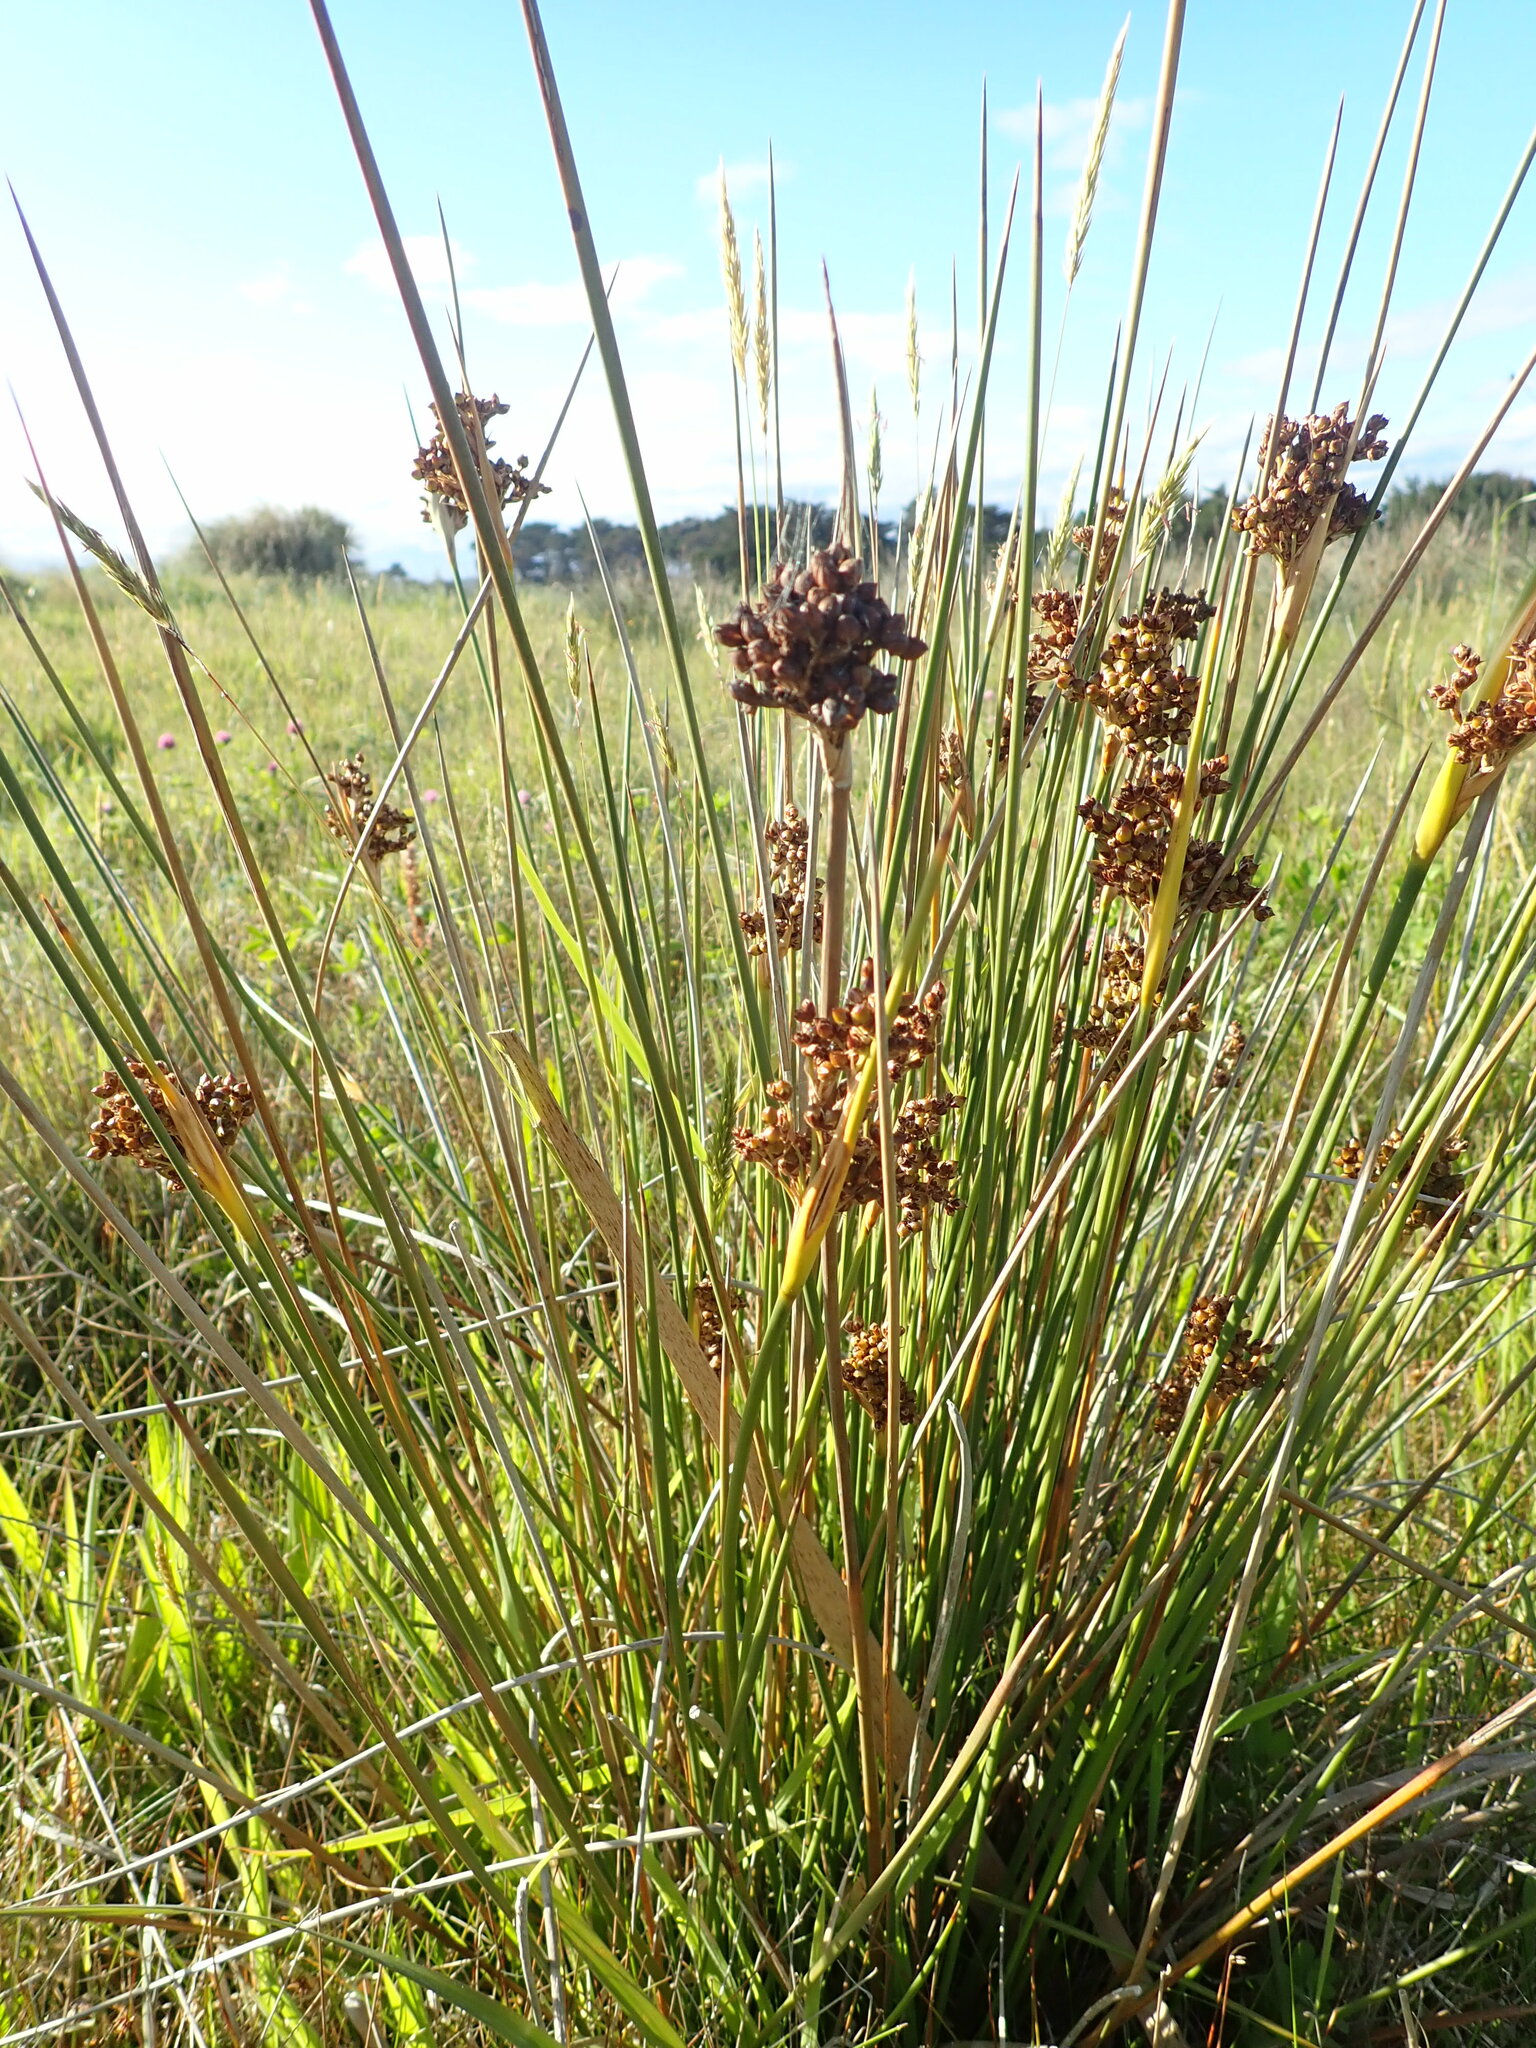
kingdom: Plantae
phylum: Tracheophyta
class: Liliopsida
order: Poales
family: Juncaceae
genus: Juncus
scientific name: Juncus acutus
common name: Sharp rush
